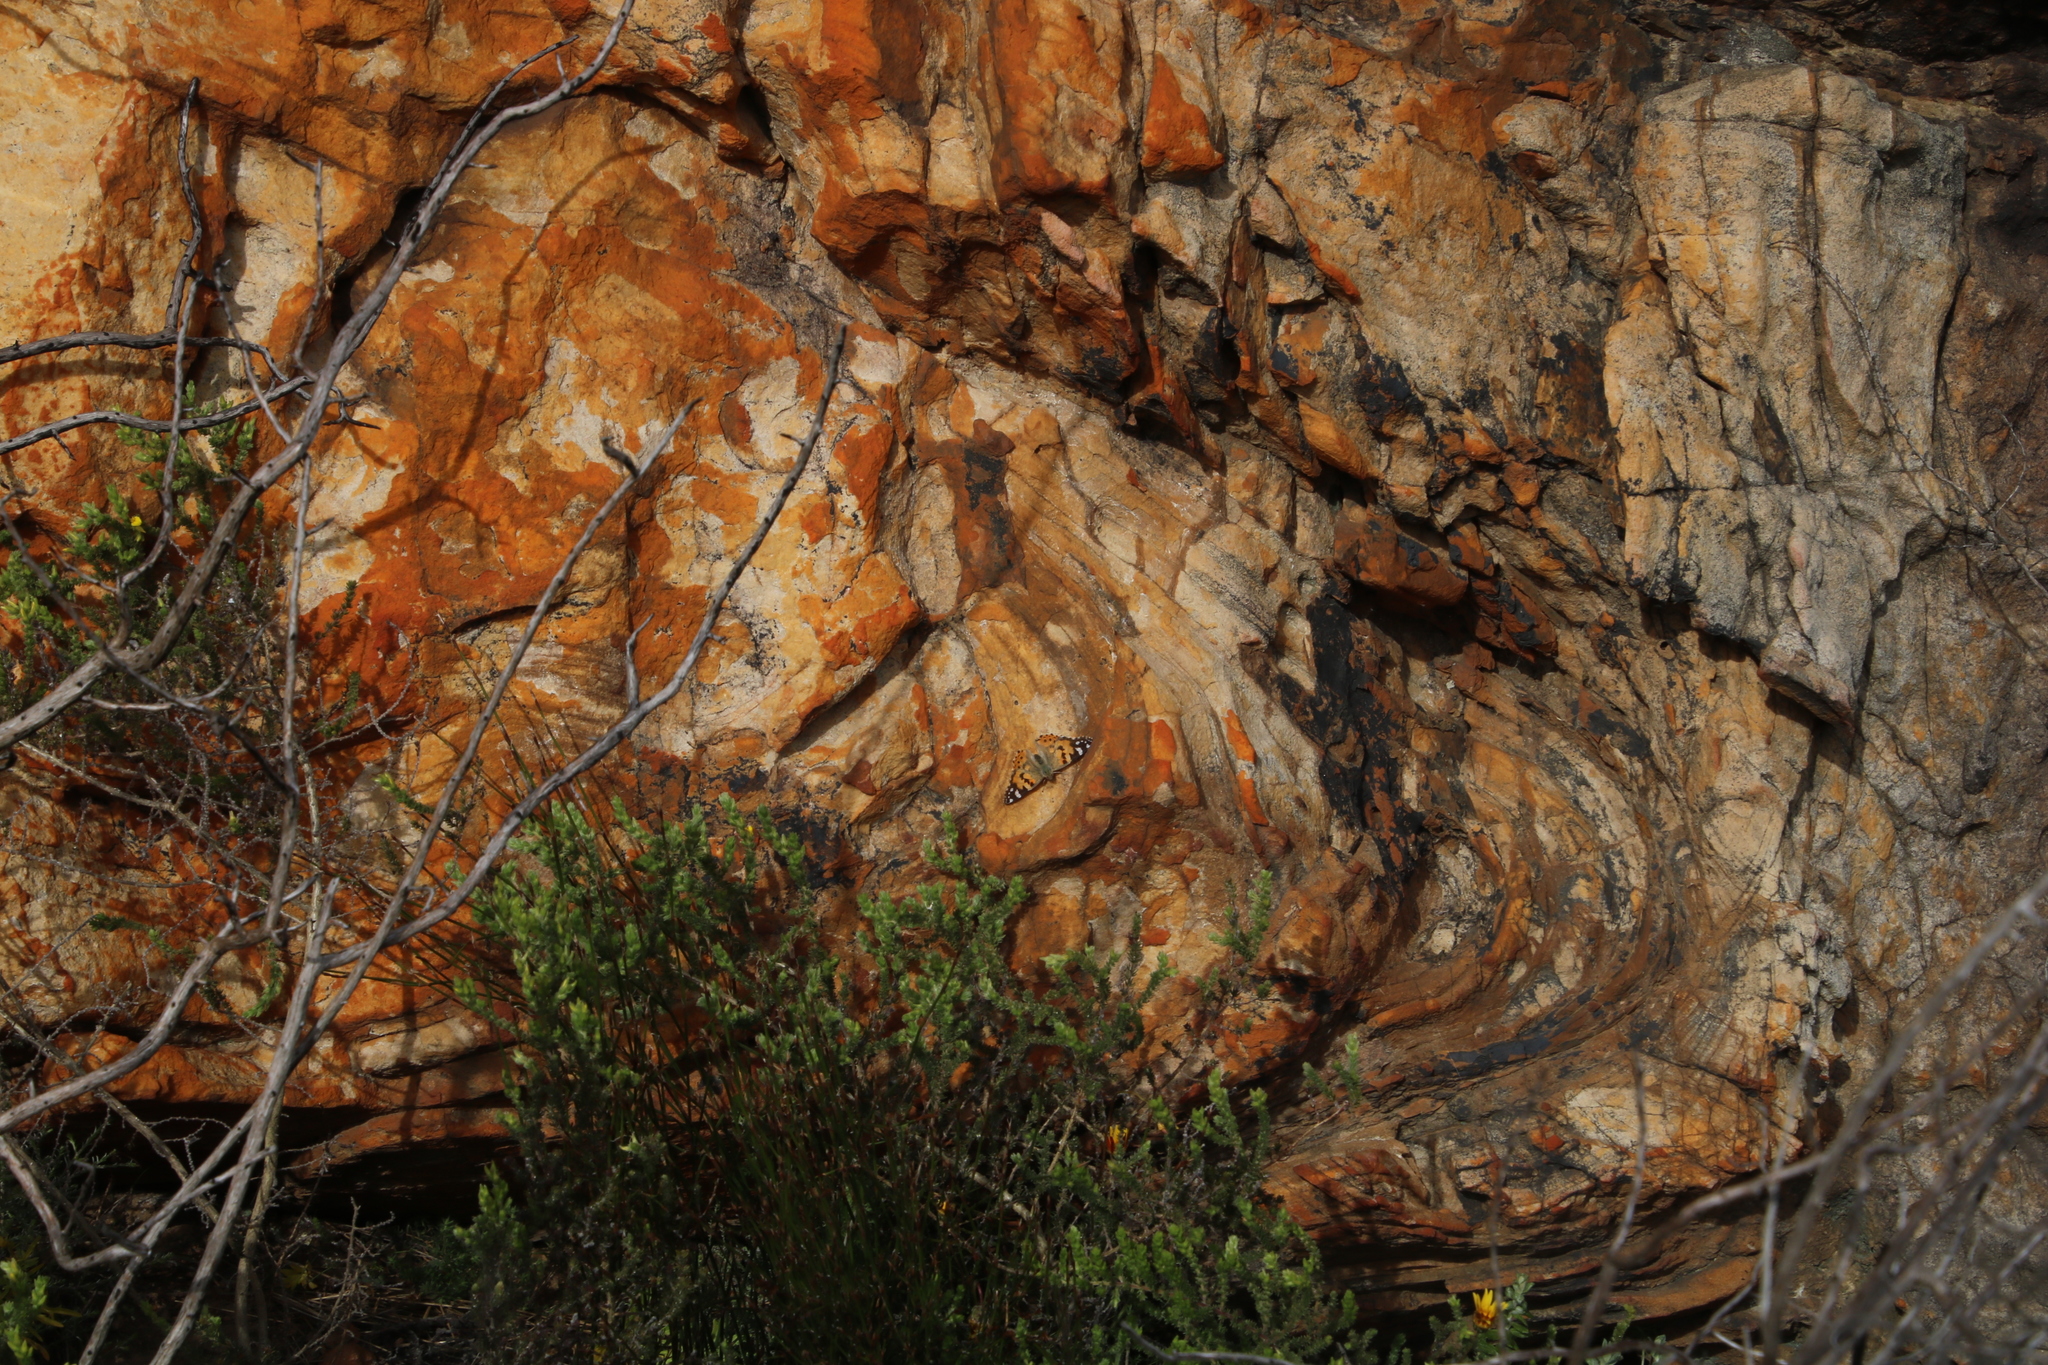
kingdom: Animalia
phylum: Arthropoda
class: Insecta
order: Lepidoptera
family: Nymphalidae
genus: Vanessa
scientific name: Vanessa cardui
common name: Painted lady
